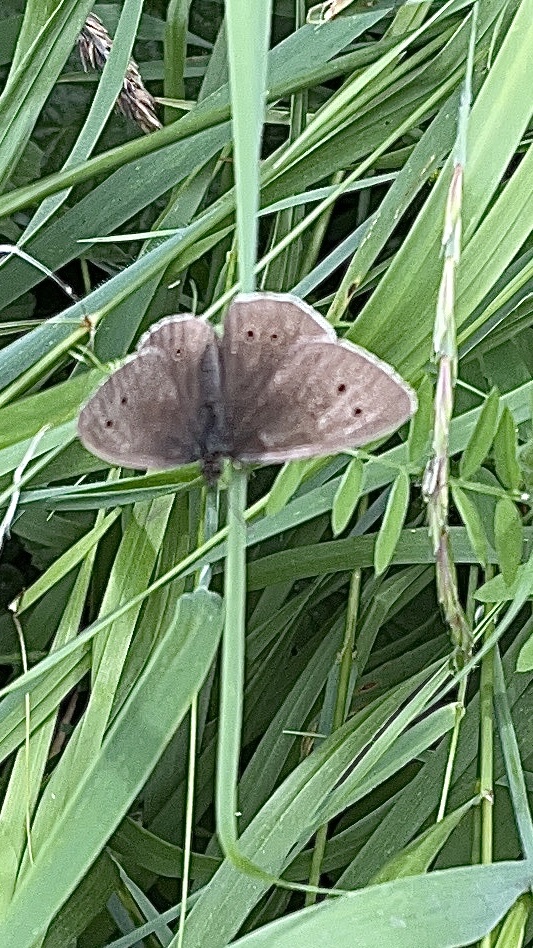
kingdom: Animalia
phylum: Arthropoda
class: Insecta
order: Lepidoptera
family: Nymphalidae
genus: Aphantopus
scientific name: Aphantopus hyperantus
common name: Ringlet
